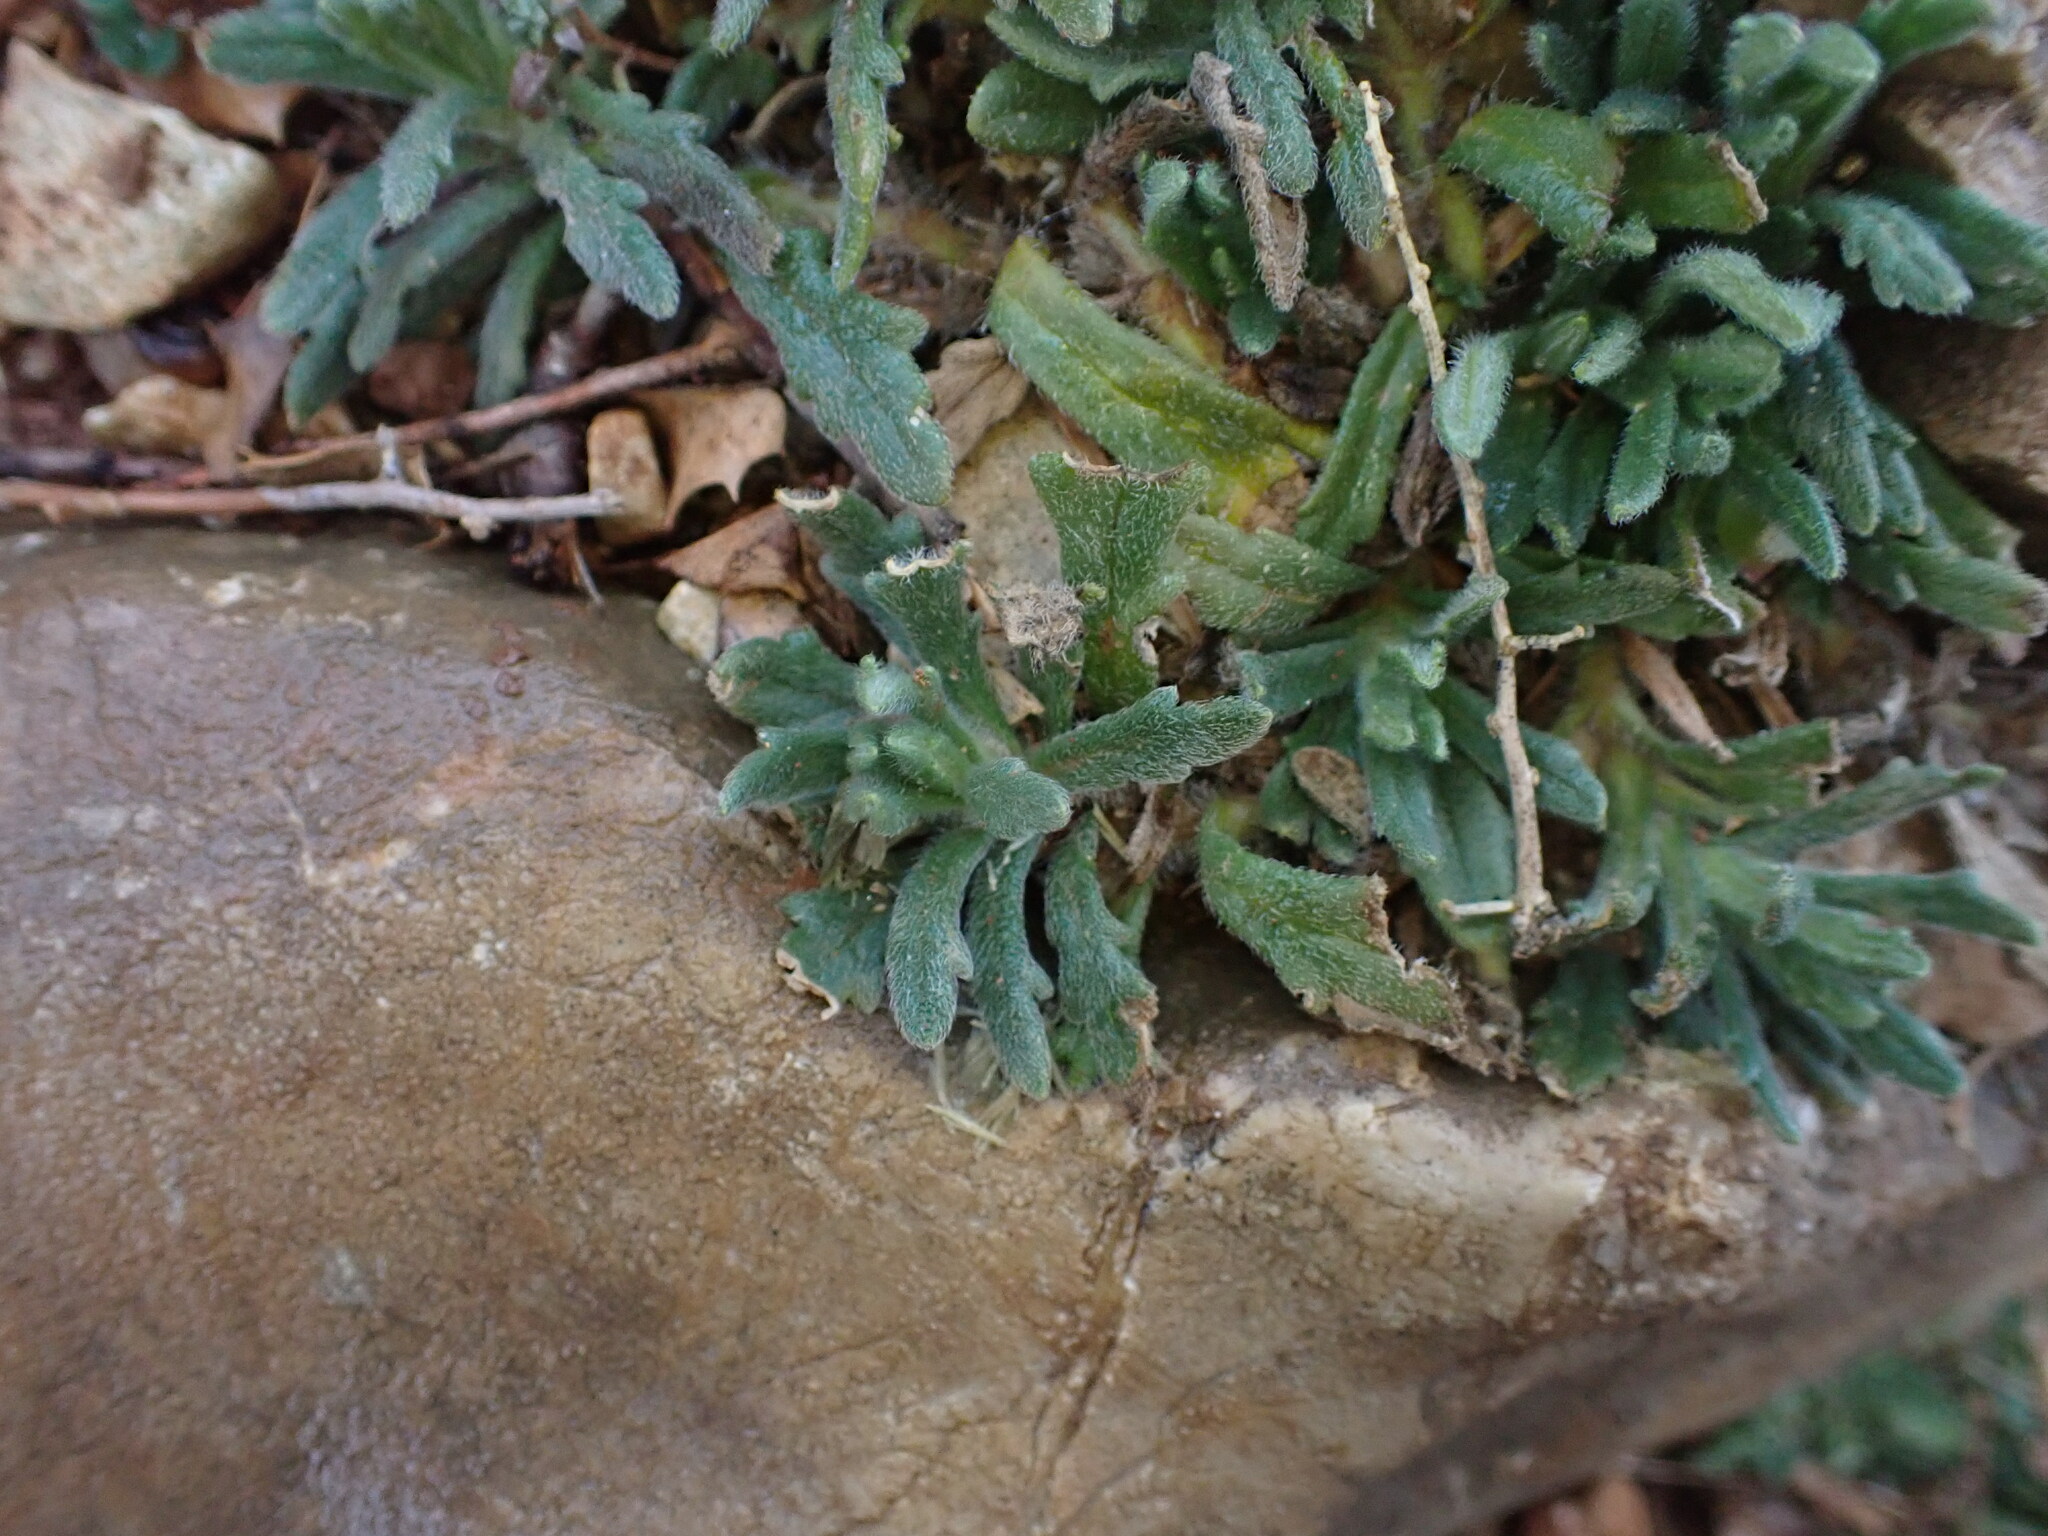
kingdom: Plantae
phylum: Tracheophyta
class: Magnoliopsida
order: Lamiales
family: Lamiaceae
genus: Ajuga
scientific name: Ajuga iva
